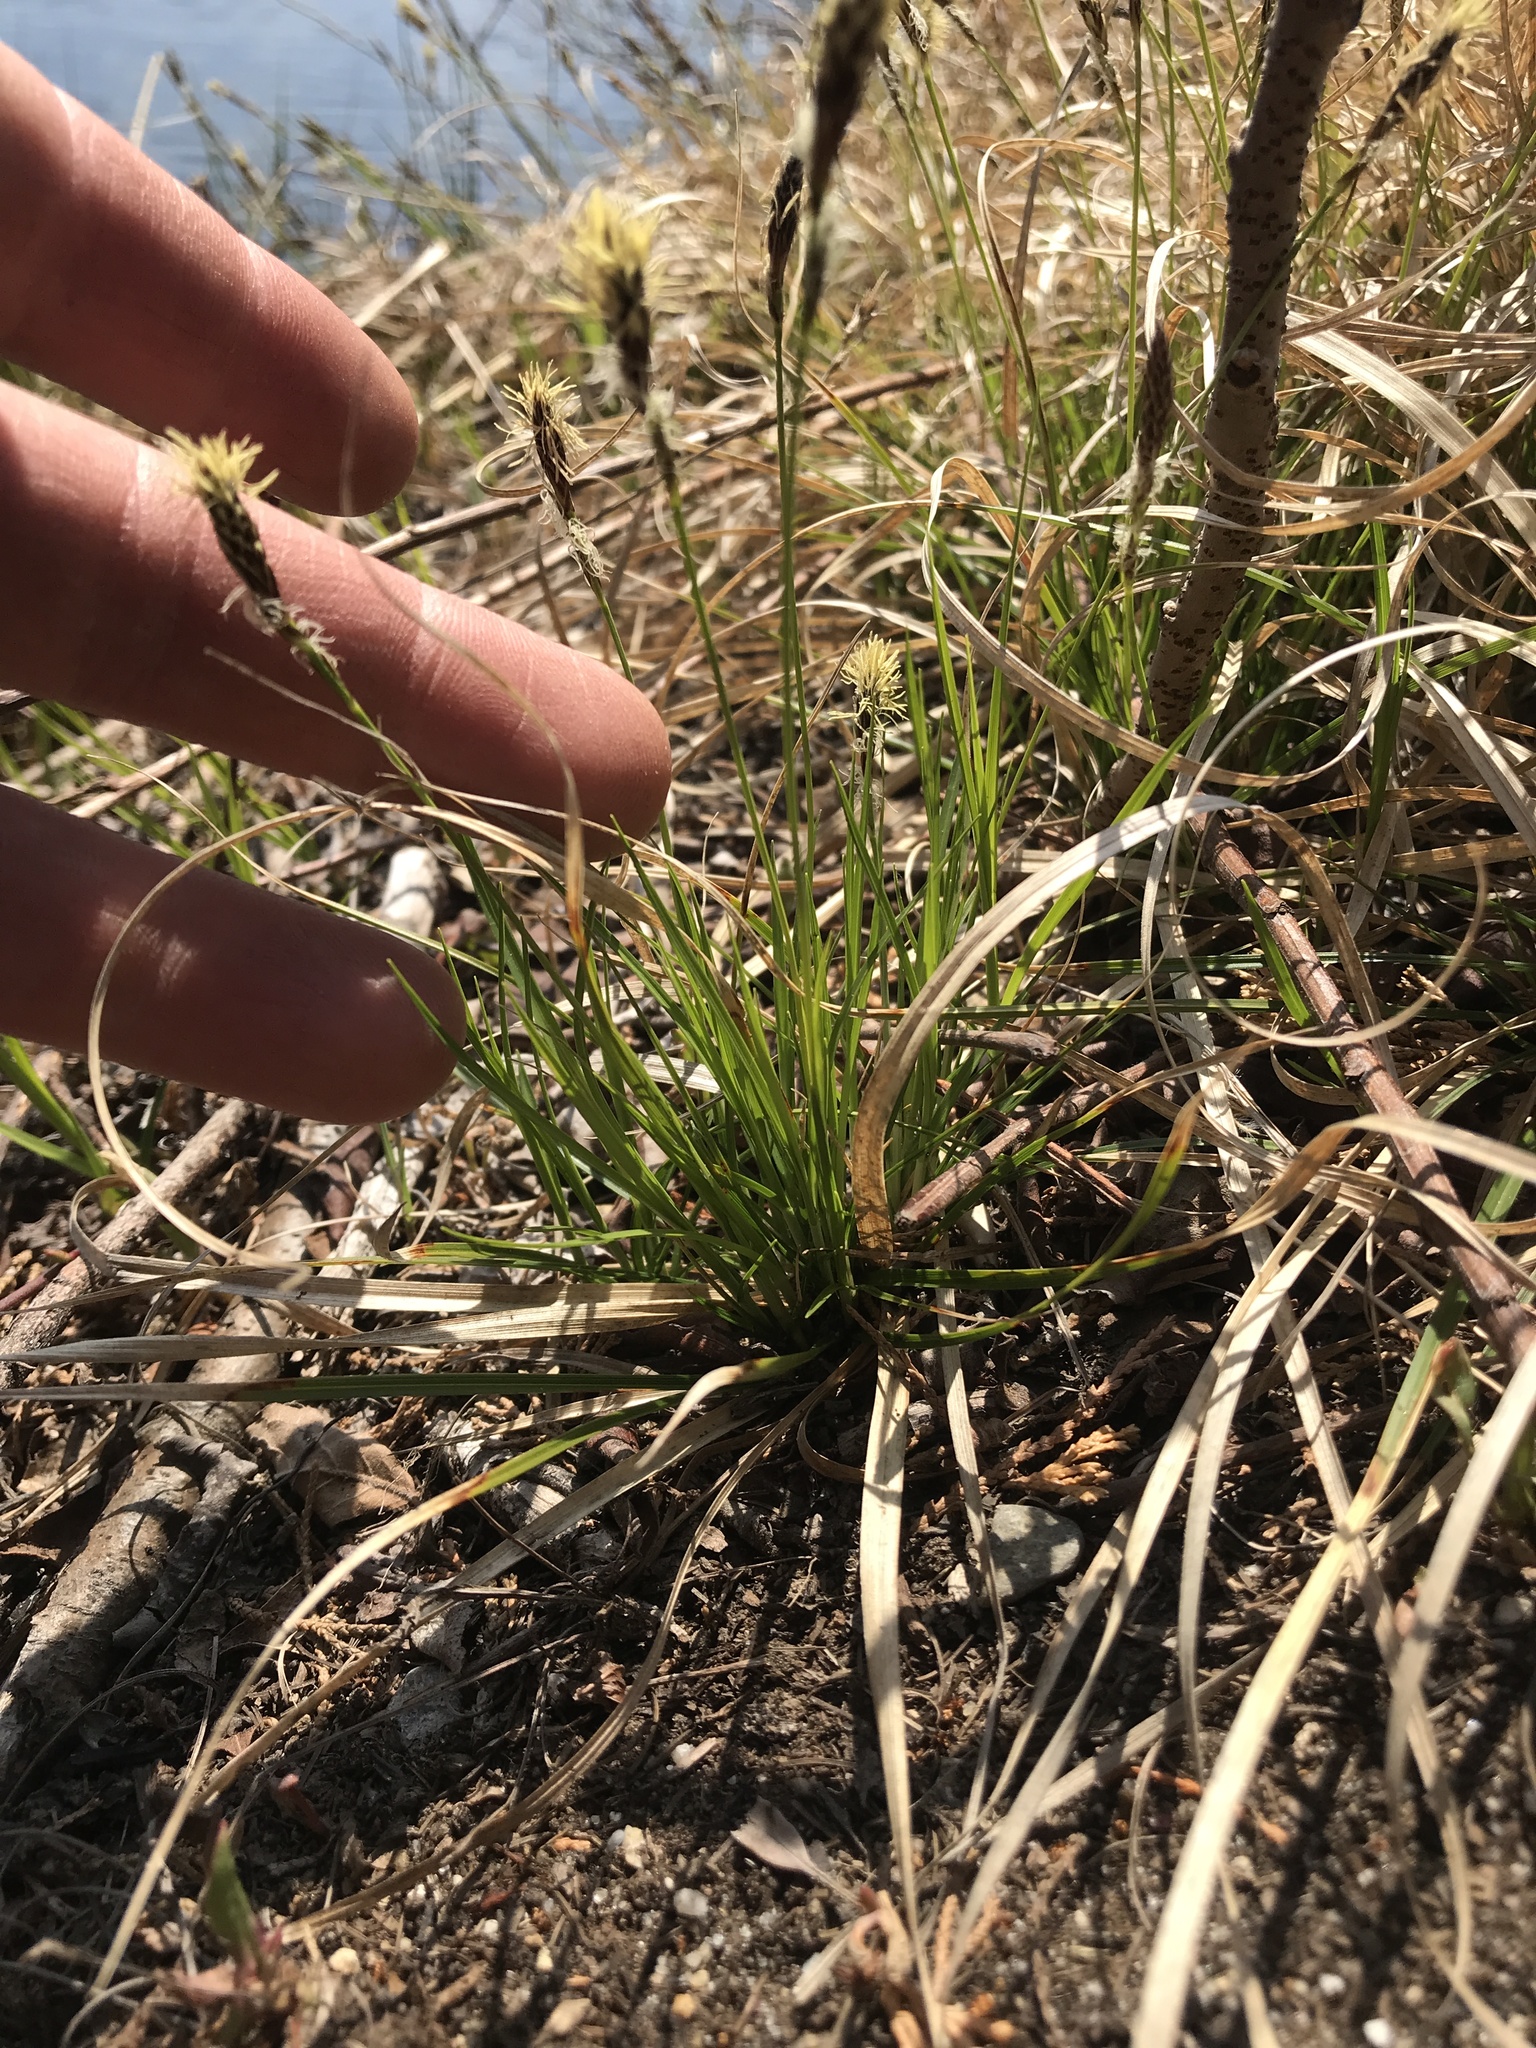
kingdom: Plantae
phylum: Tracheophyta
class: Liliopsida
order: Poales
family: Cyperaceae
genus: Carex
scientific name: Carex pensylvanica
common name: Common oak sedge
